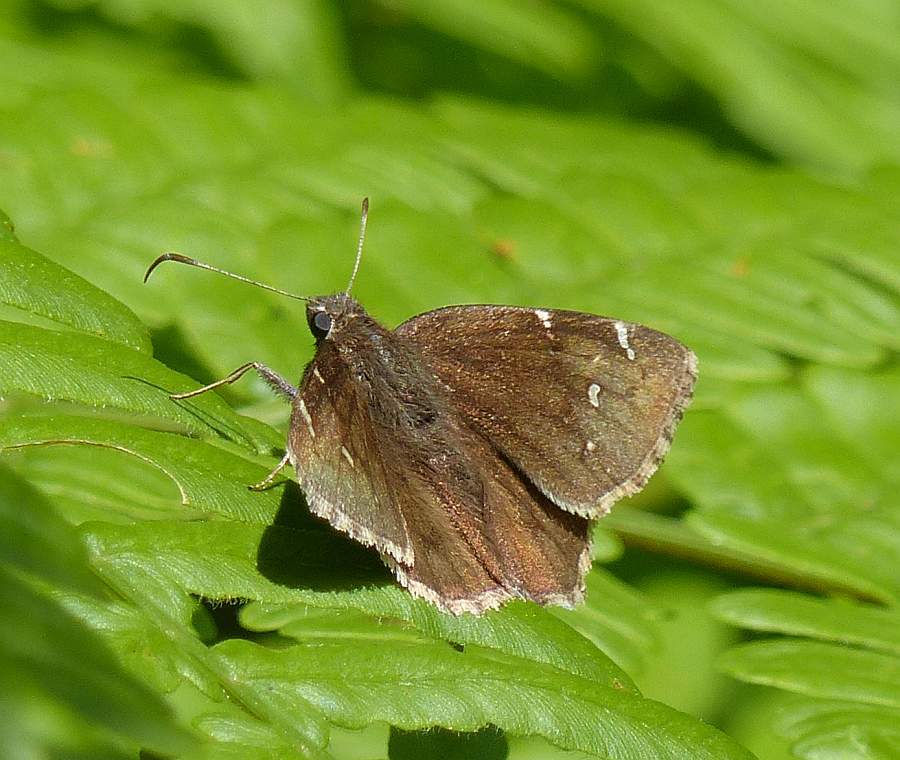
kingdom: Animalia
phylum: Arthropoda
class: Insecta
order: Lepidoptera
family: Hesperiidae
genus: Thorybes
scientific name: Thorybes pylades
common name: Northern cloudywing
